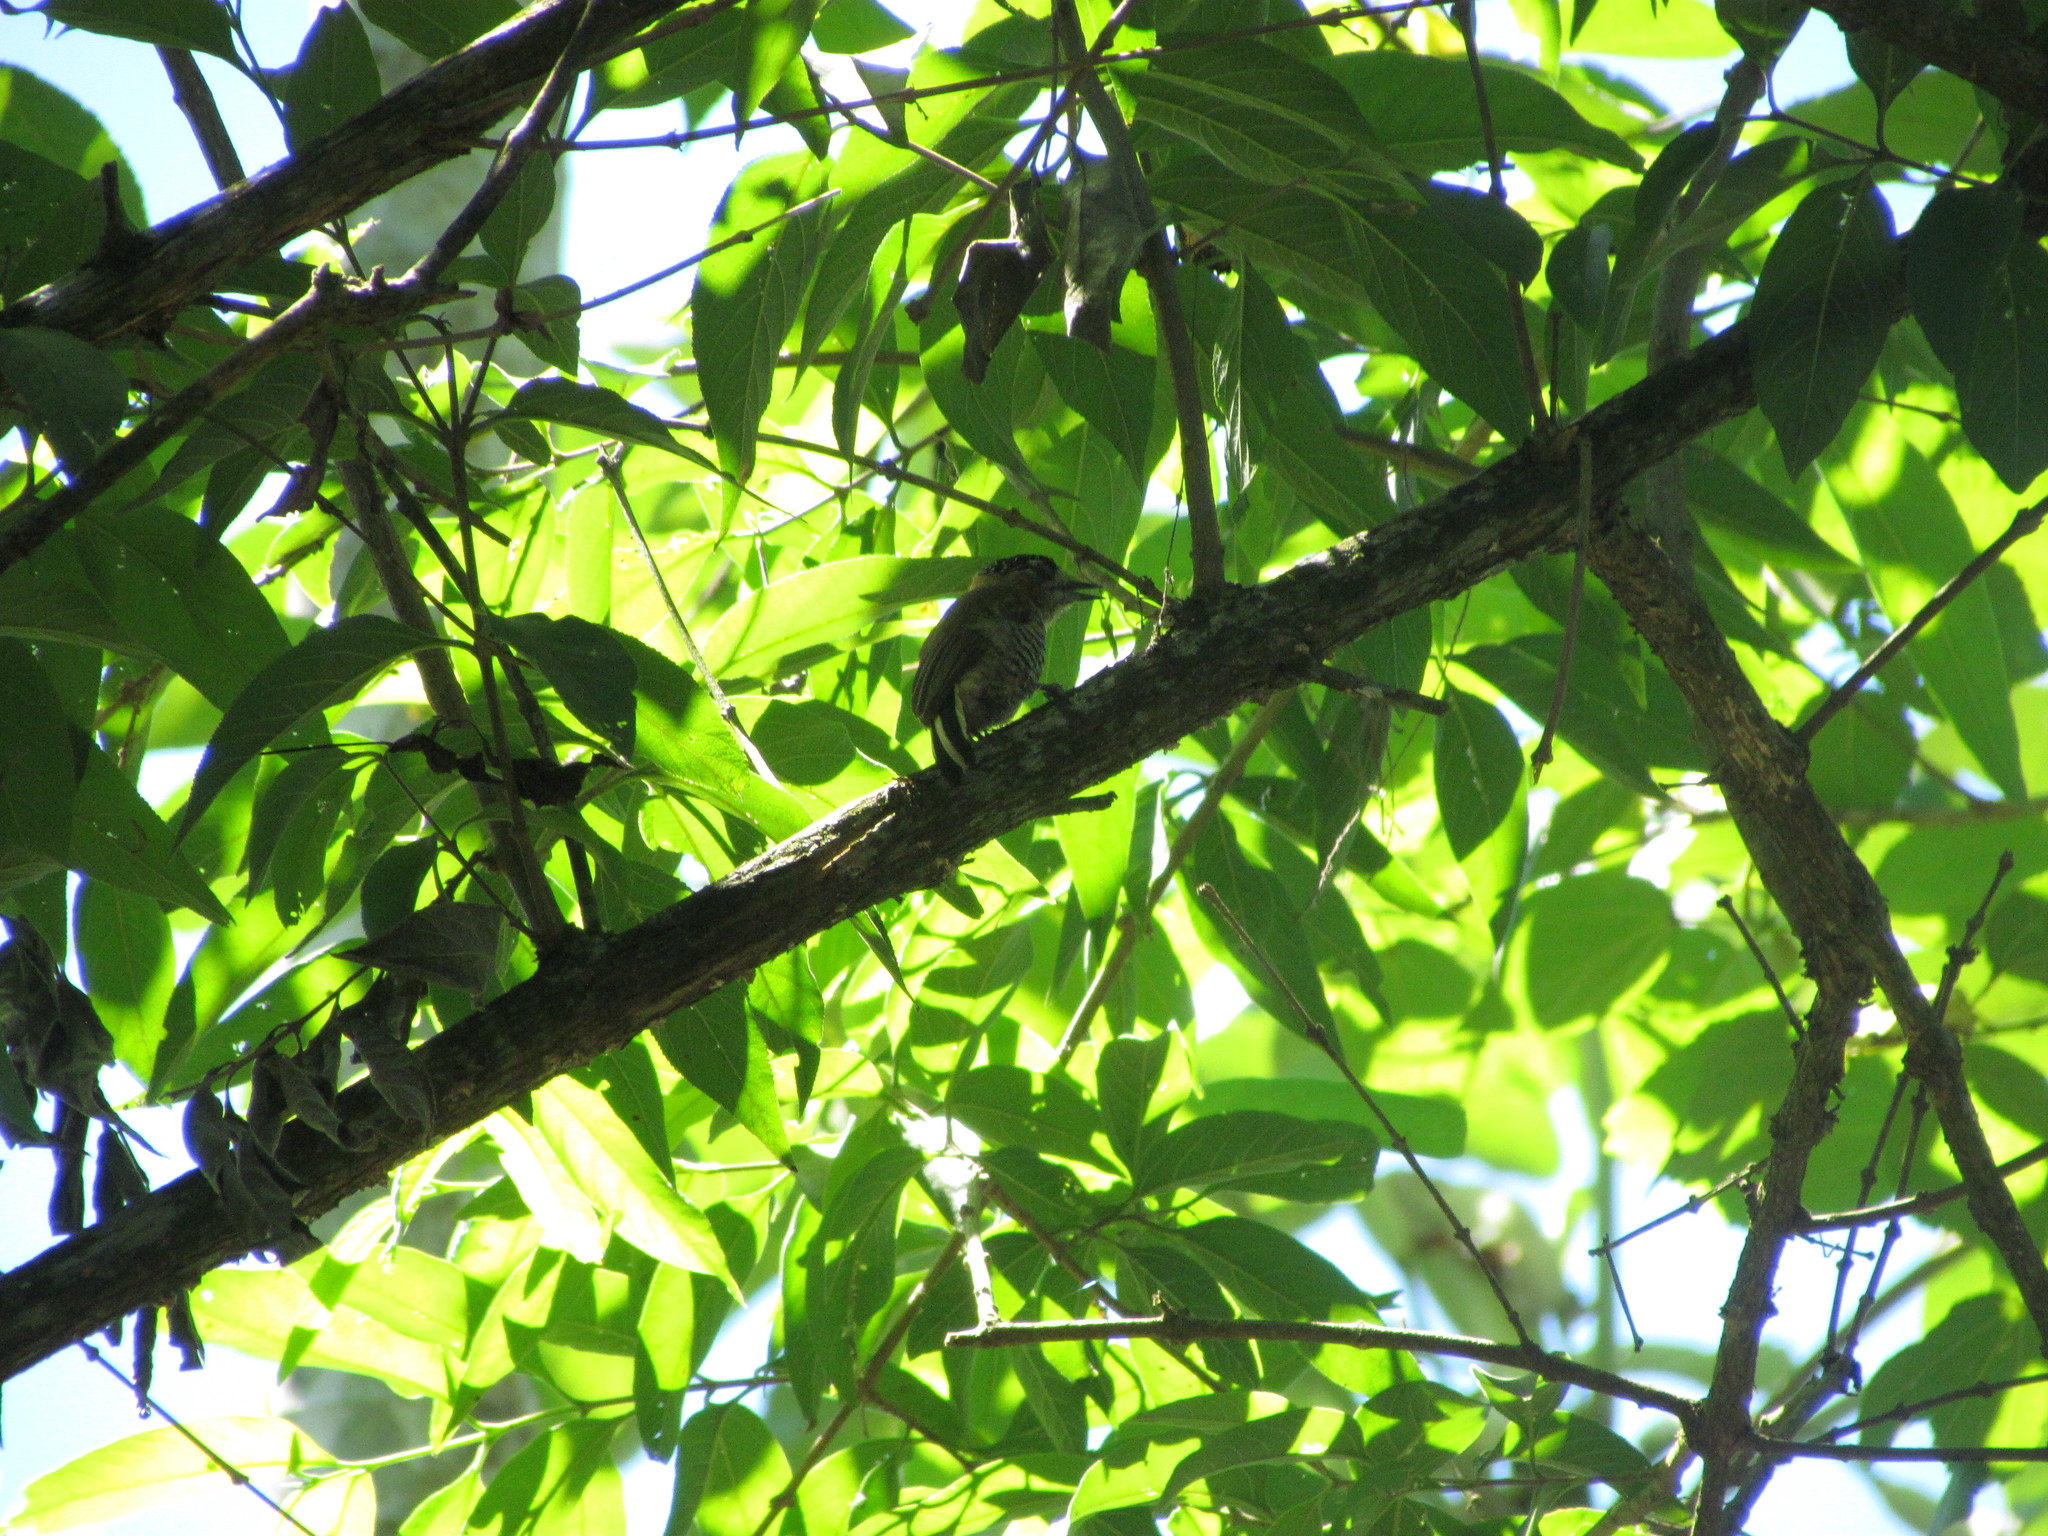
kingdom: Animalia
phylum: Chordata
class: Aves
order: Piciformes
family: Picidae
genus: Picumnus
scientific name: Picumnus temminckii
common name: Ochre-collared piculet
